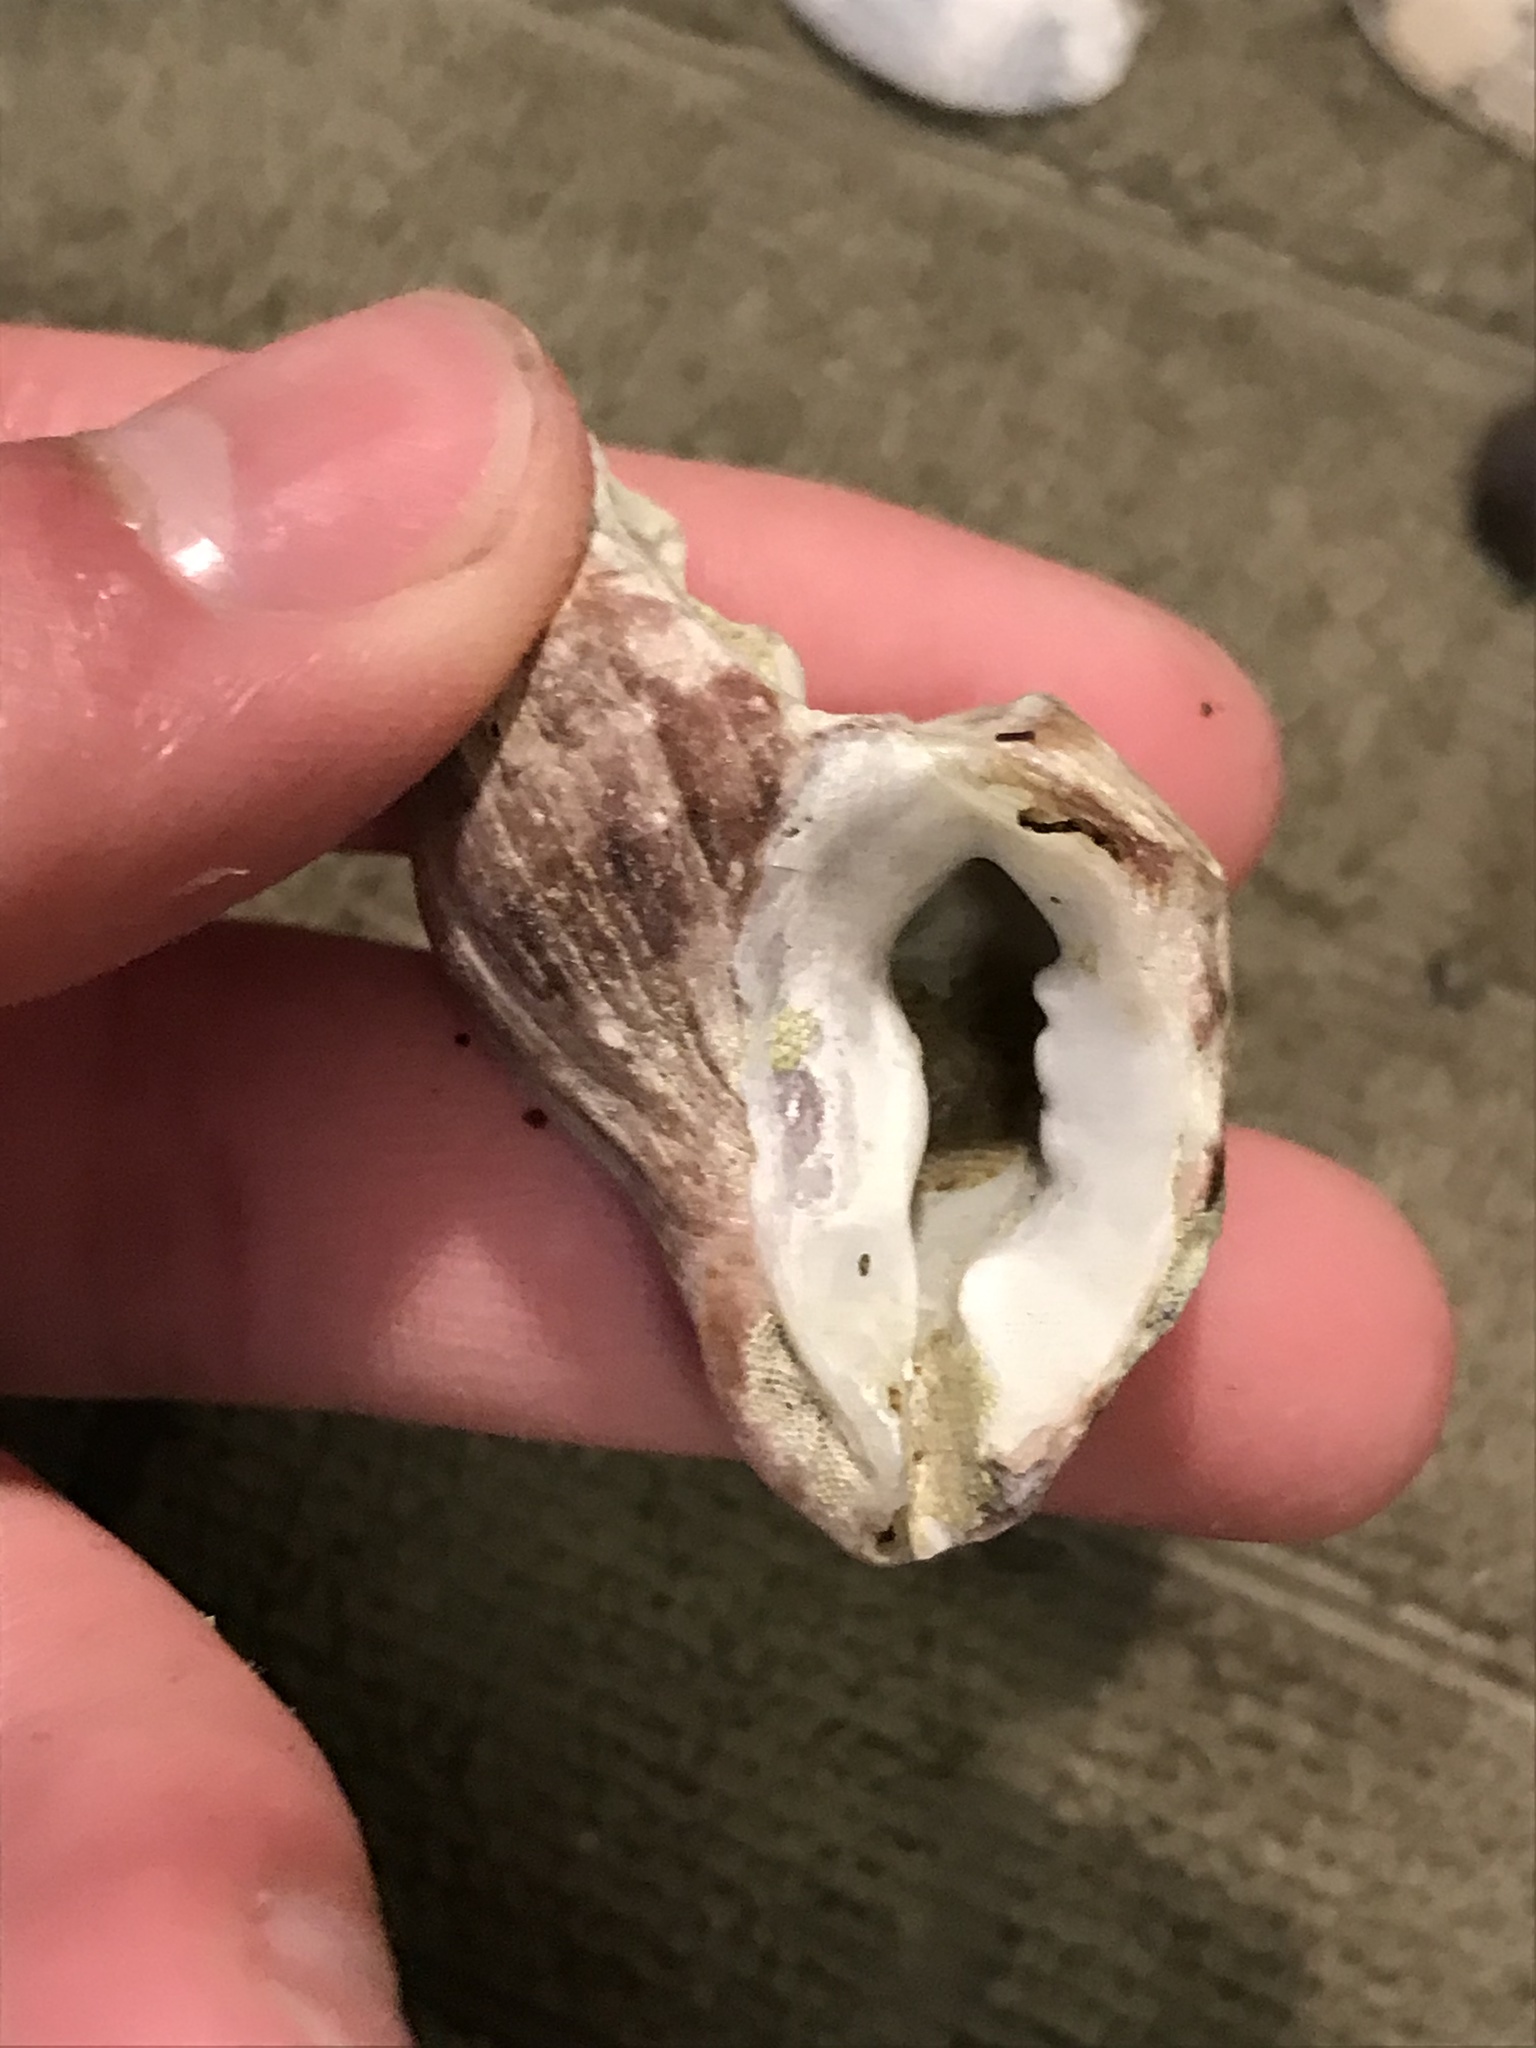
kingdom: Animalia
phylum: Mollusca
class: Gastropoda
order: Neogastropoda
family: Muricidae
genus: Nucella
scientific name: Nucella lamellosa
